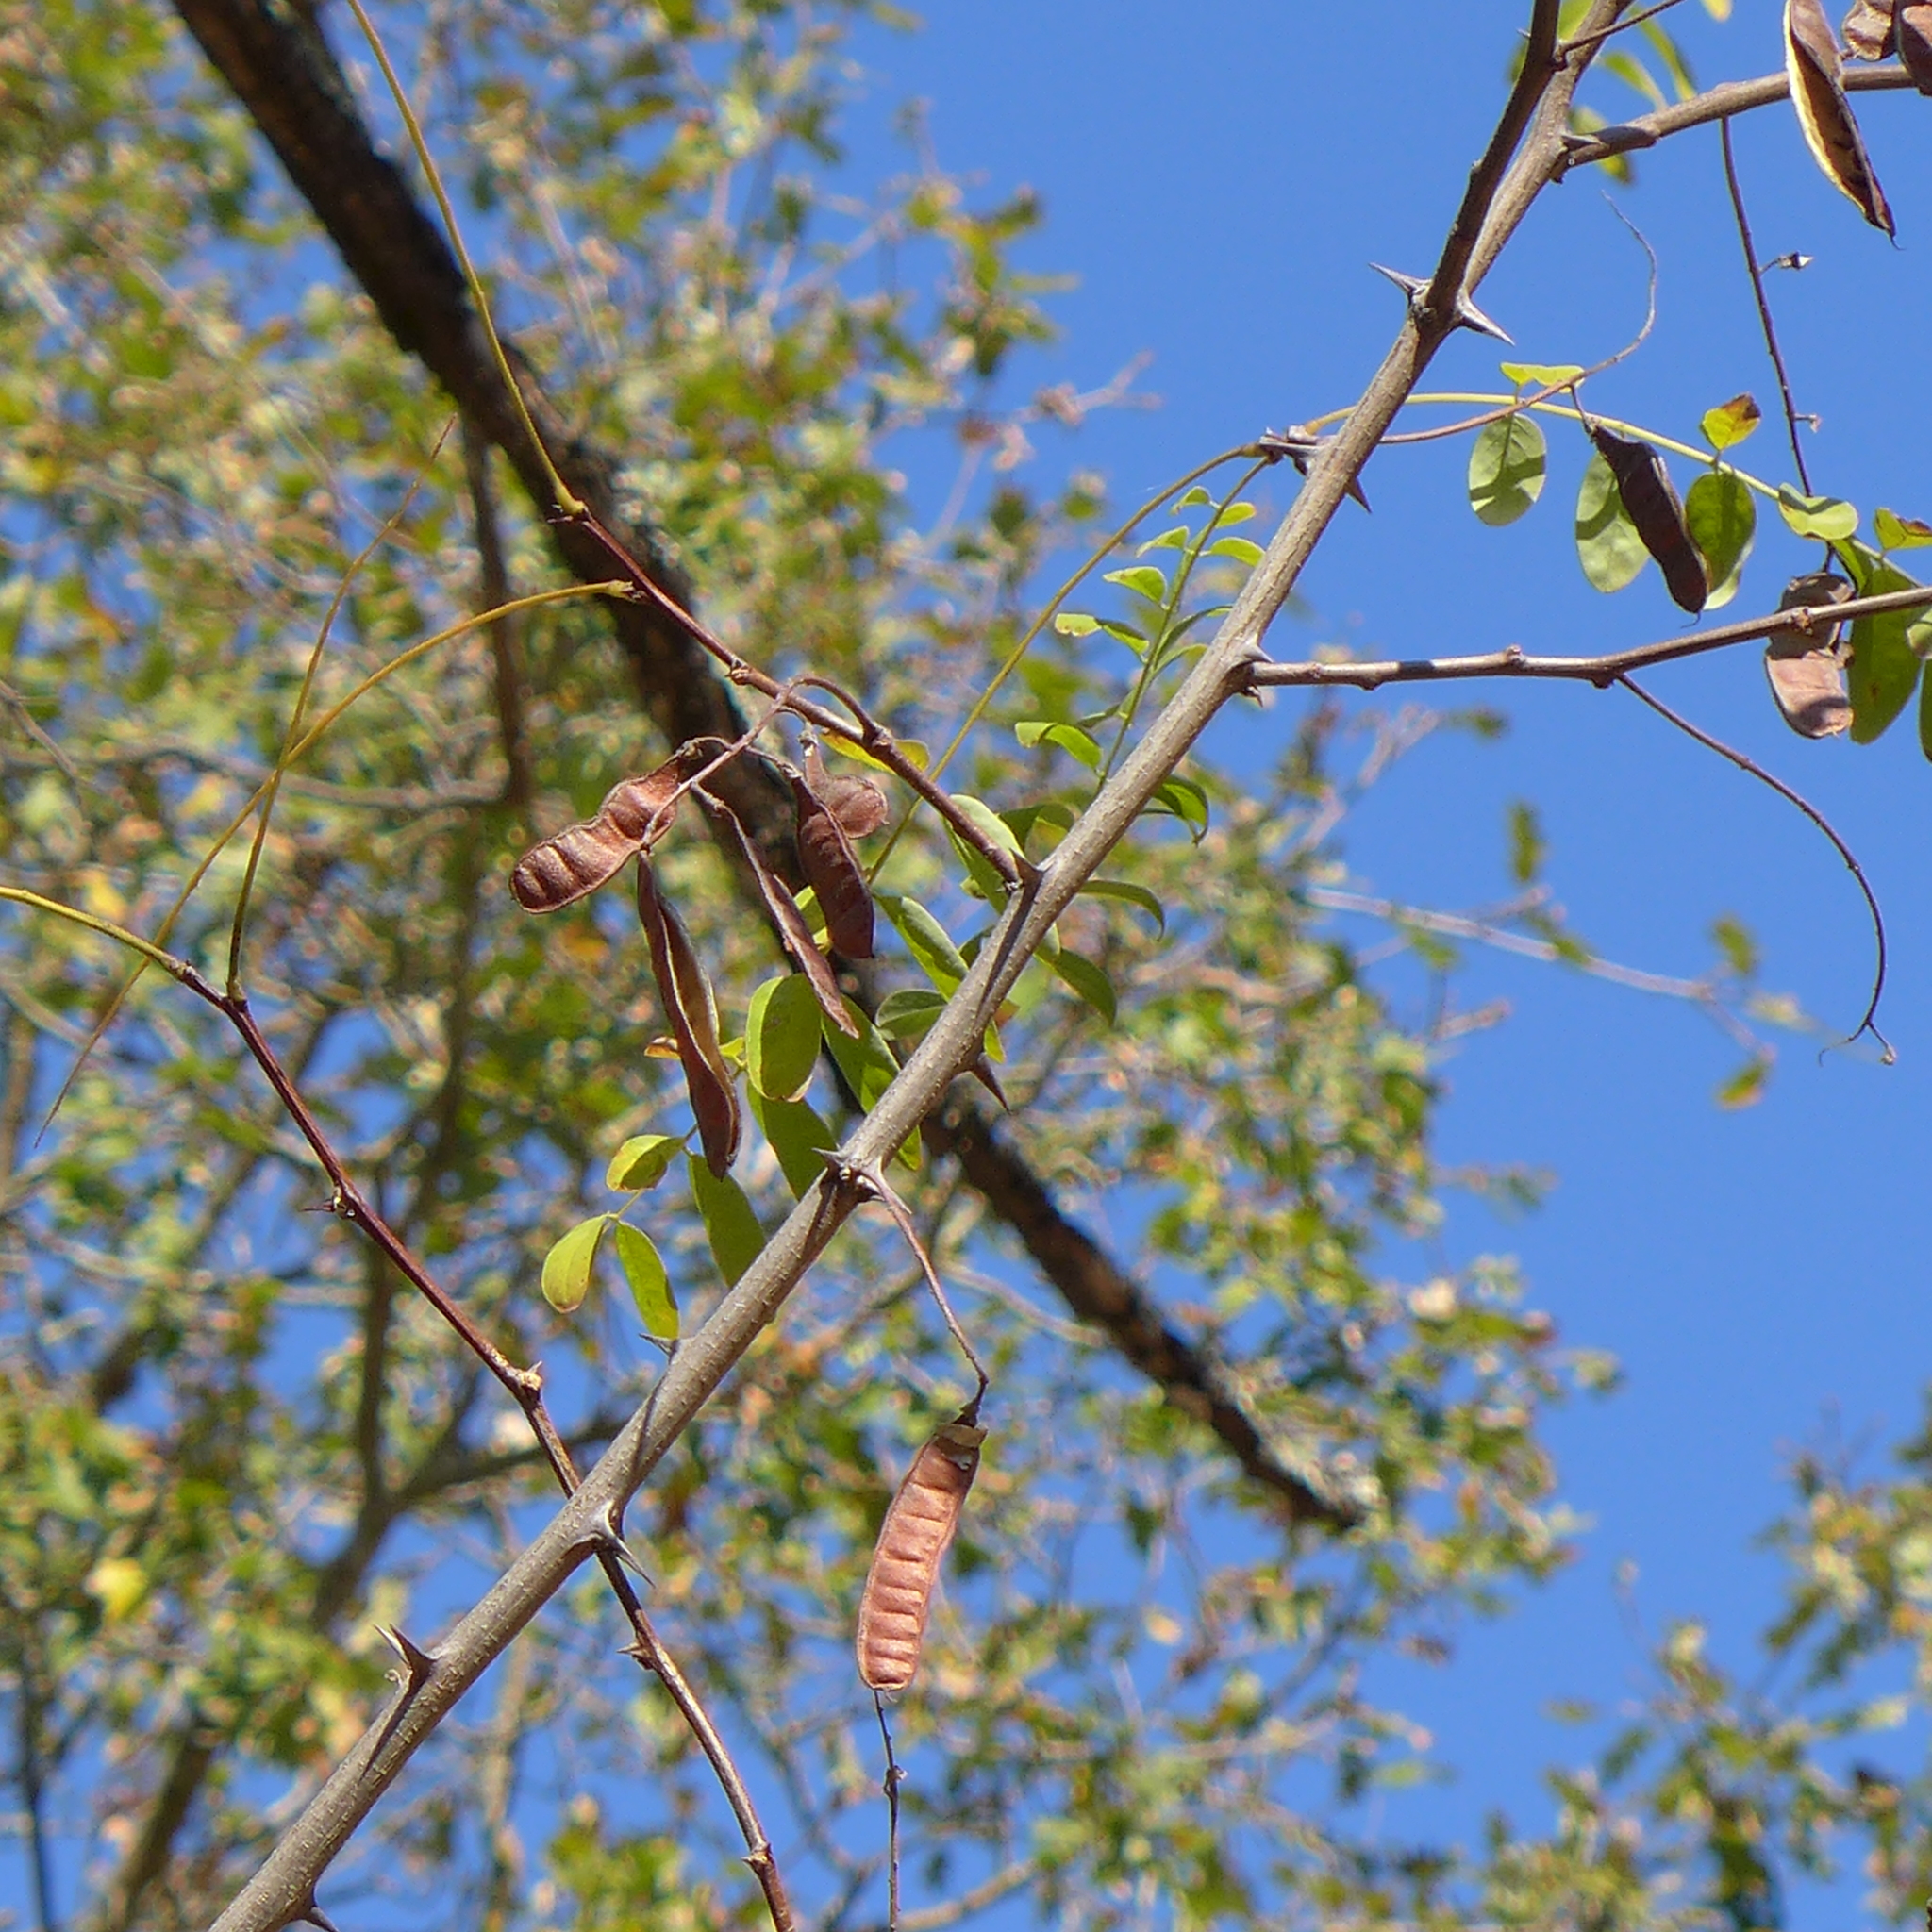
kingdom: Fungi
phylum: Basidiomycota
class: Agaricomycetes
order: Polyporales
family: Laetiporaceae
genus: Laetiporus
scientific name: Laetiporus gilbertsonii
